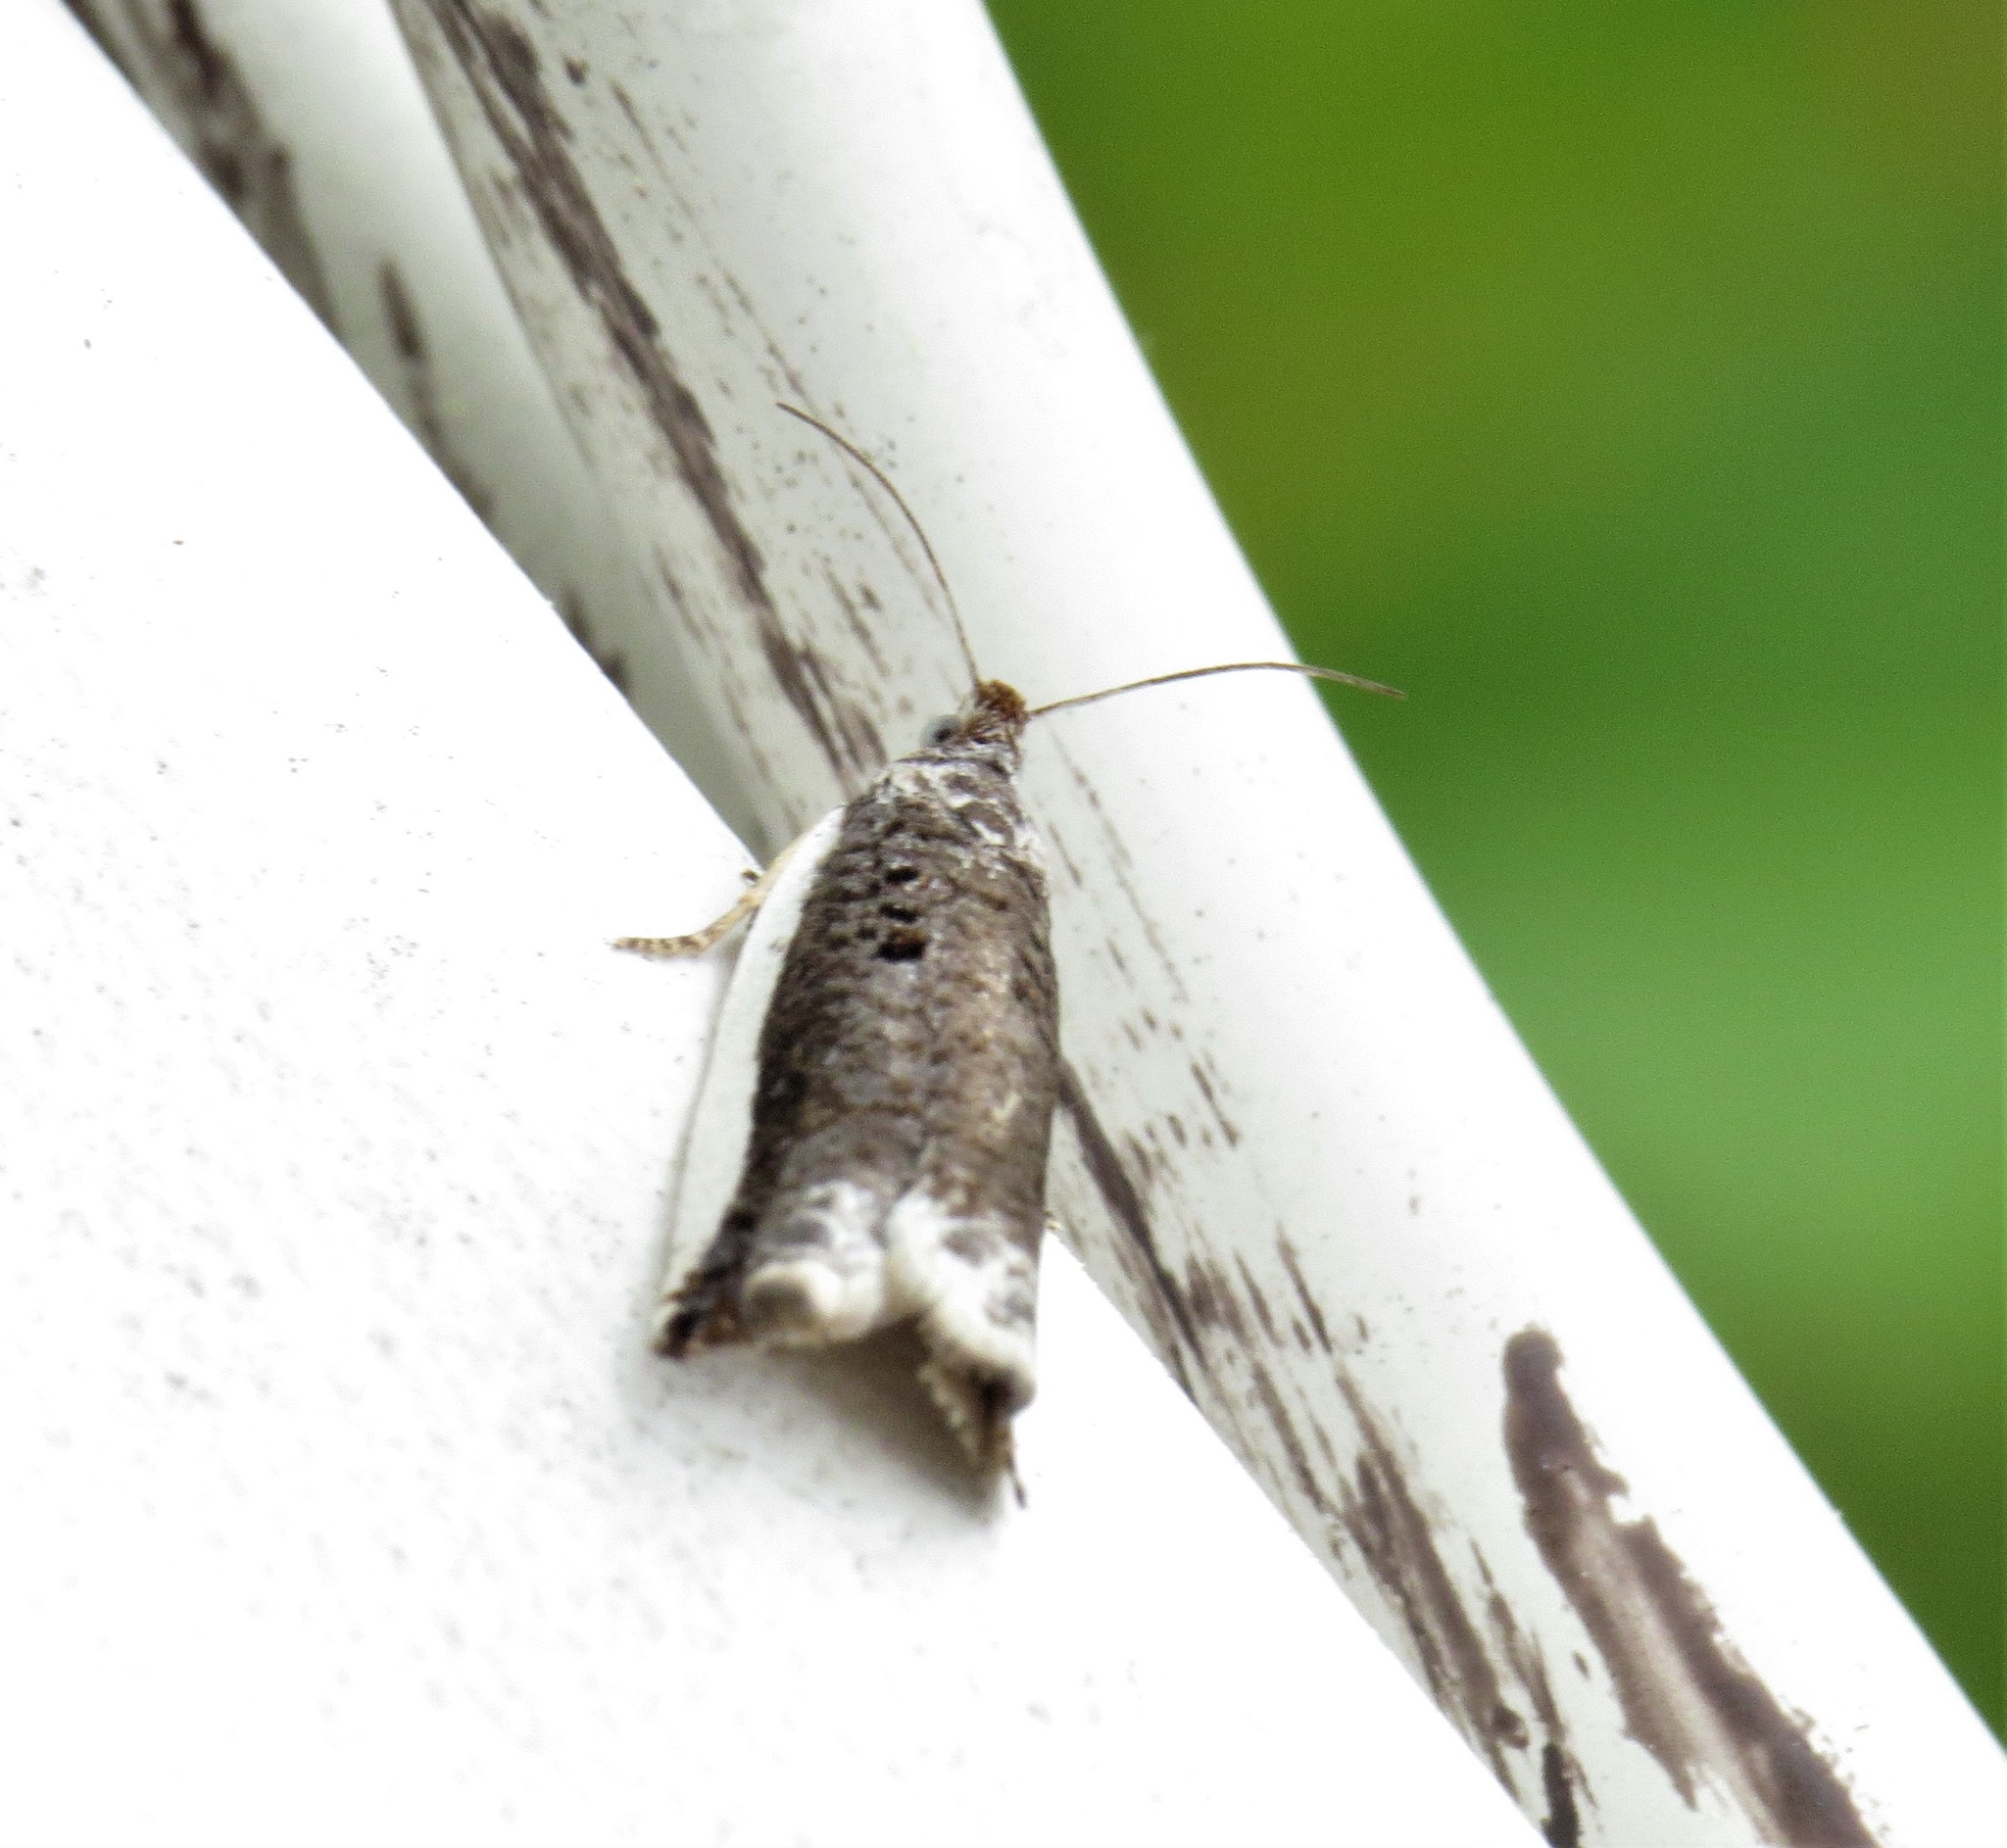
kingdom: Animalia
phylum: Arthropoda
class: Insecta
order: Lepidoptera
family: Tortricidae
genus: Ancylis
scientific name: Ancylis albacostana
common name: White-edged ancylis moth
